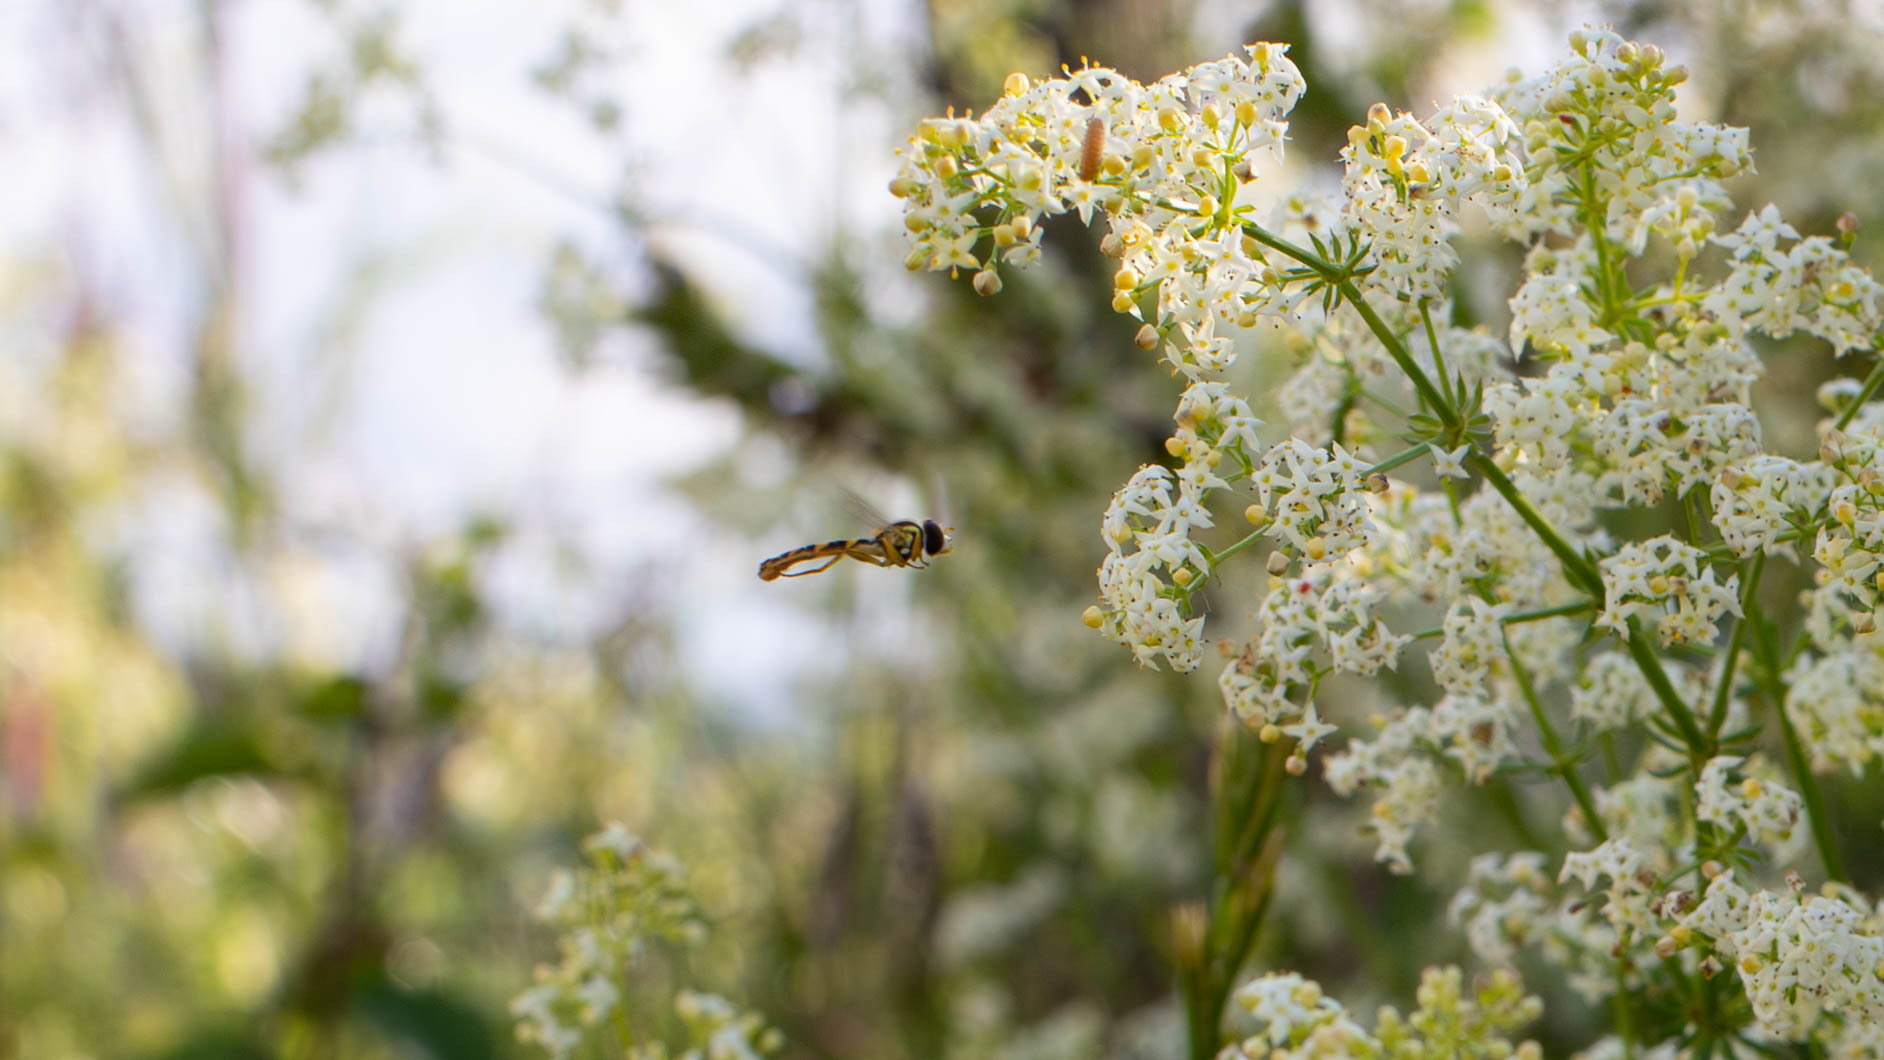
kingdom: Animalia
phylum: Arthropoda
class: Insecta
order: Diptera
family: Syrphidae
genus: Sphaerophoria
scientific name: Sphaerophoria scripta
